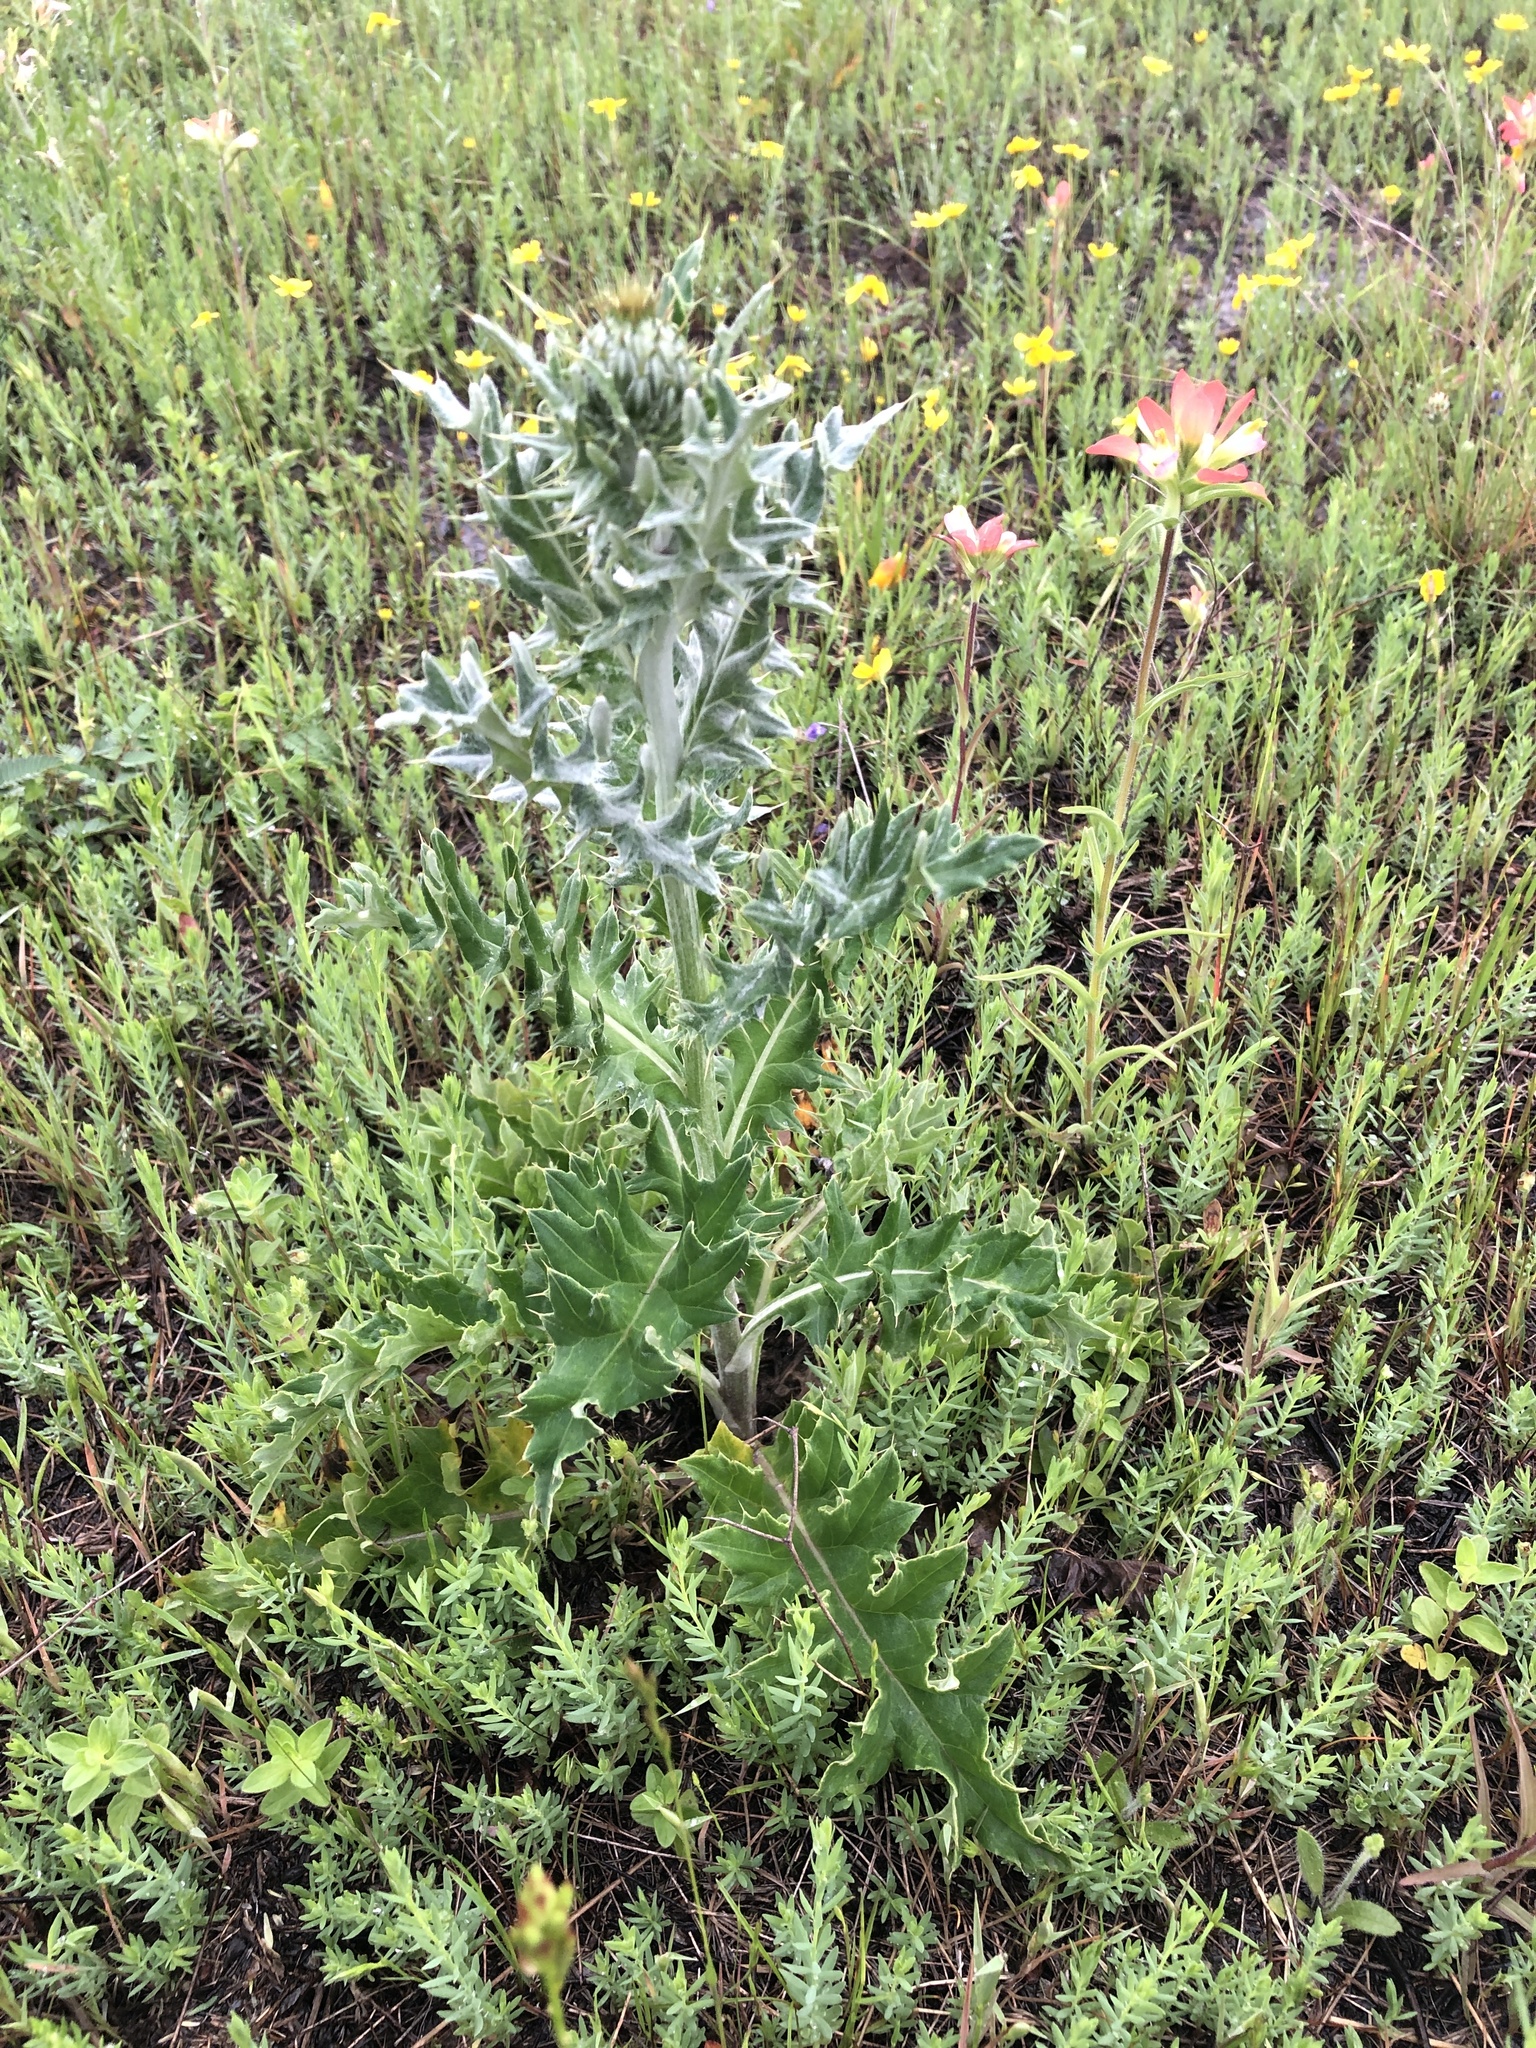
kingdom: Plantae
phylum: Tracheophyta
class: Magnoliopsida
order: Asterales
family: Asteraceae
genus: Cirsium
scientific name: Cirsium undulatum
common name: Pasture thistle
